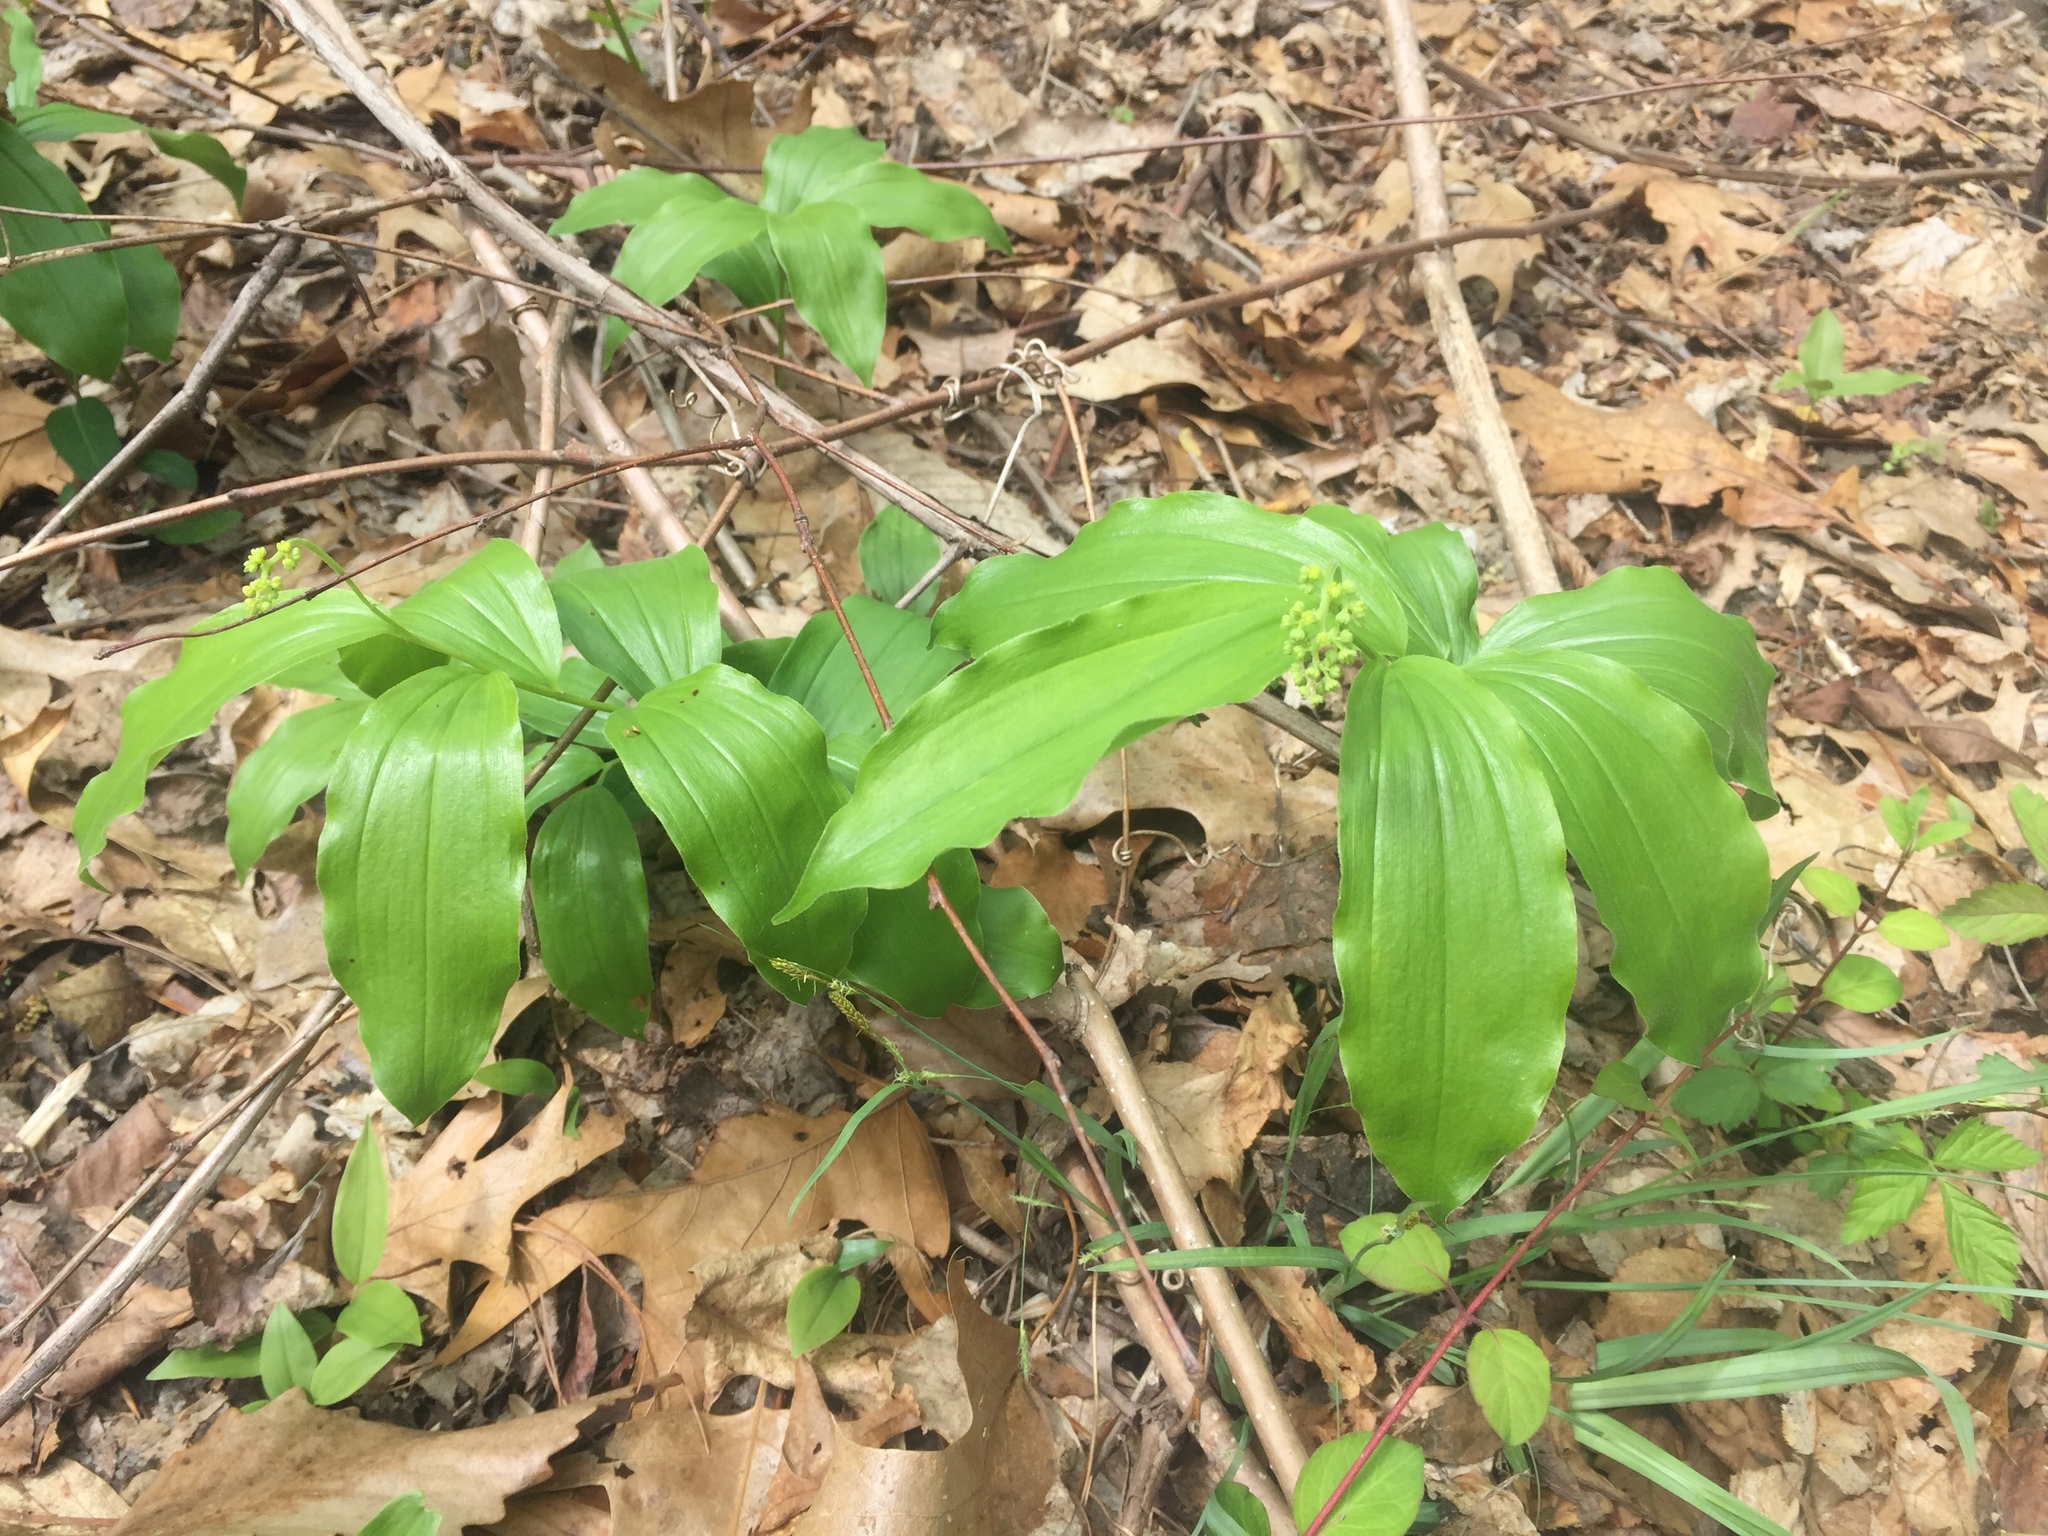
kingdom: Plantae
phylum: Tracheophyta
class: Liliopsida
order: Asparagales
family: Asparagaceae
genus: Maianthemum
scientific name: Maianthemum racemosum
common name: False spikenard
